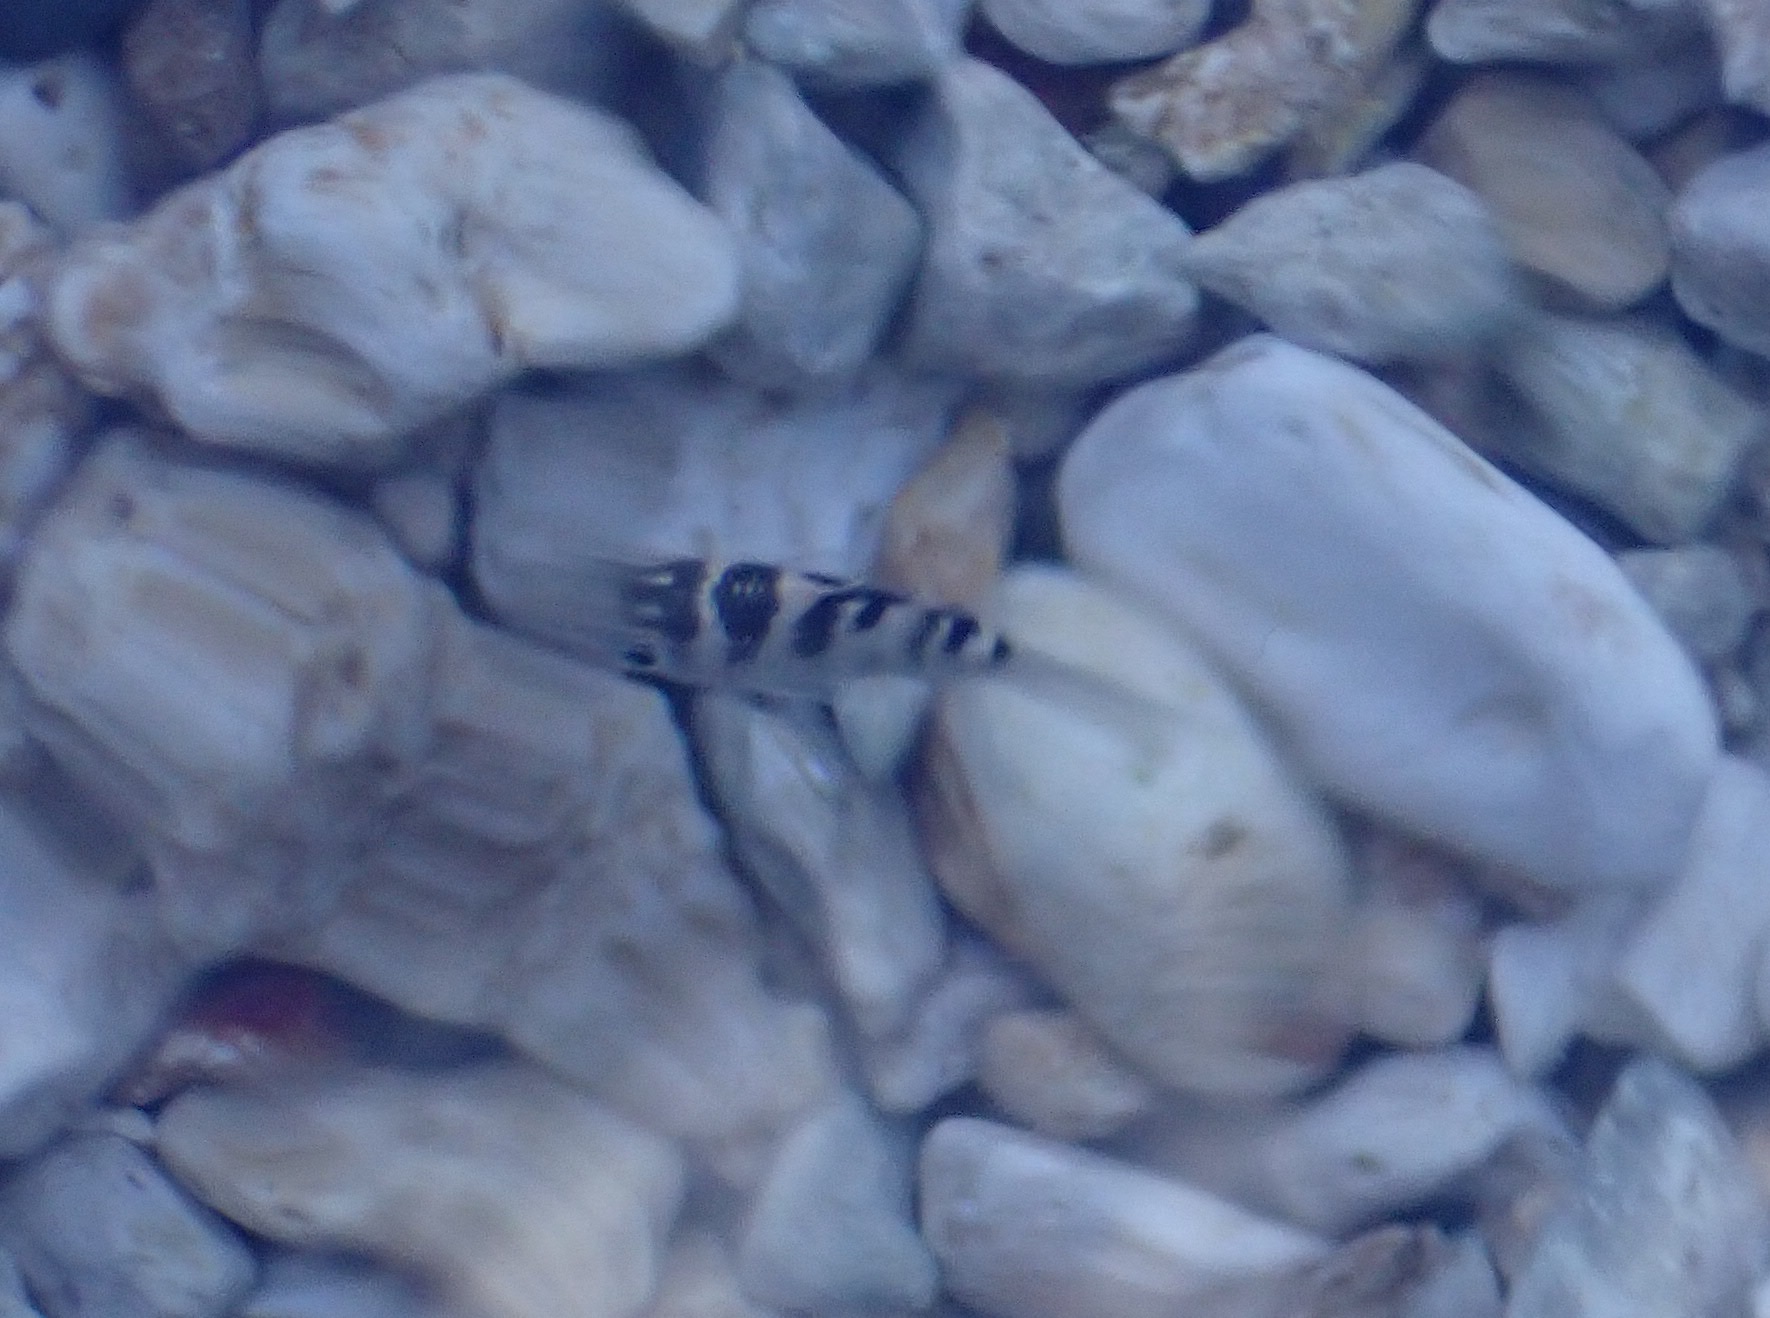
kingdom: Animalia
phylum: Chordata
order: Perciformes
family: Pomacentridae
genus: Abudefduf
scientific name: Abudefduf saxatilis
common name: Sergeant major
